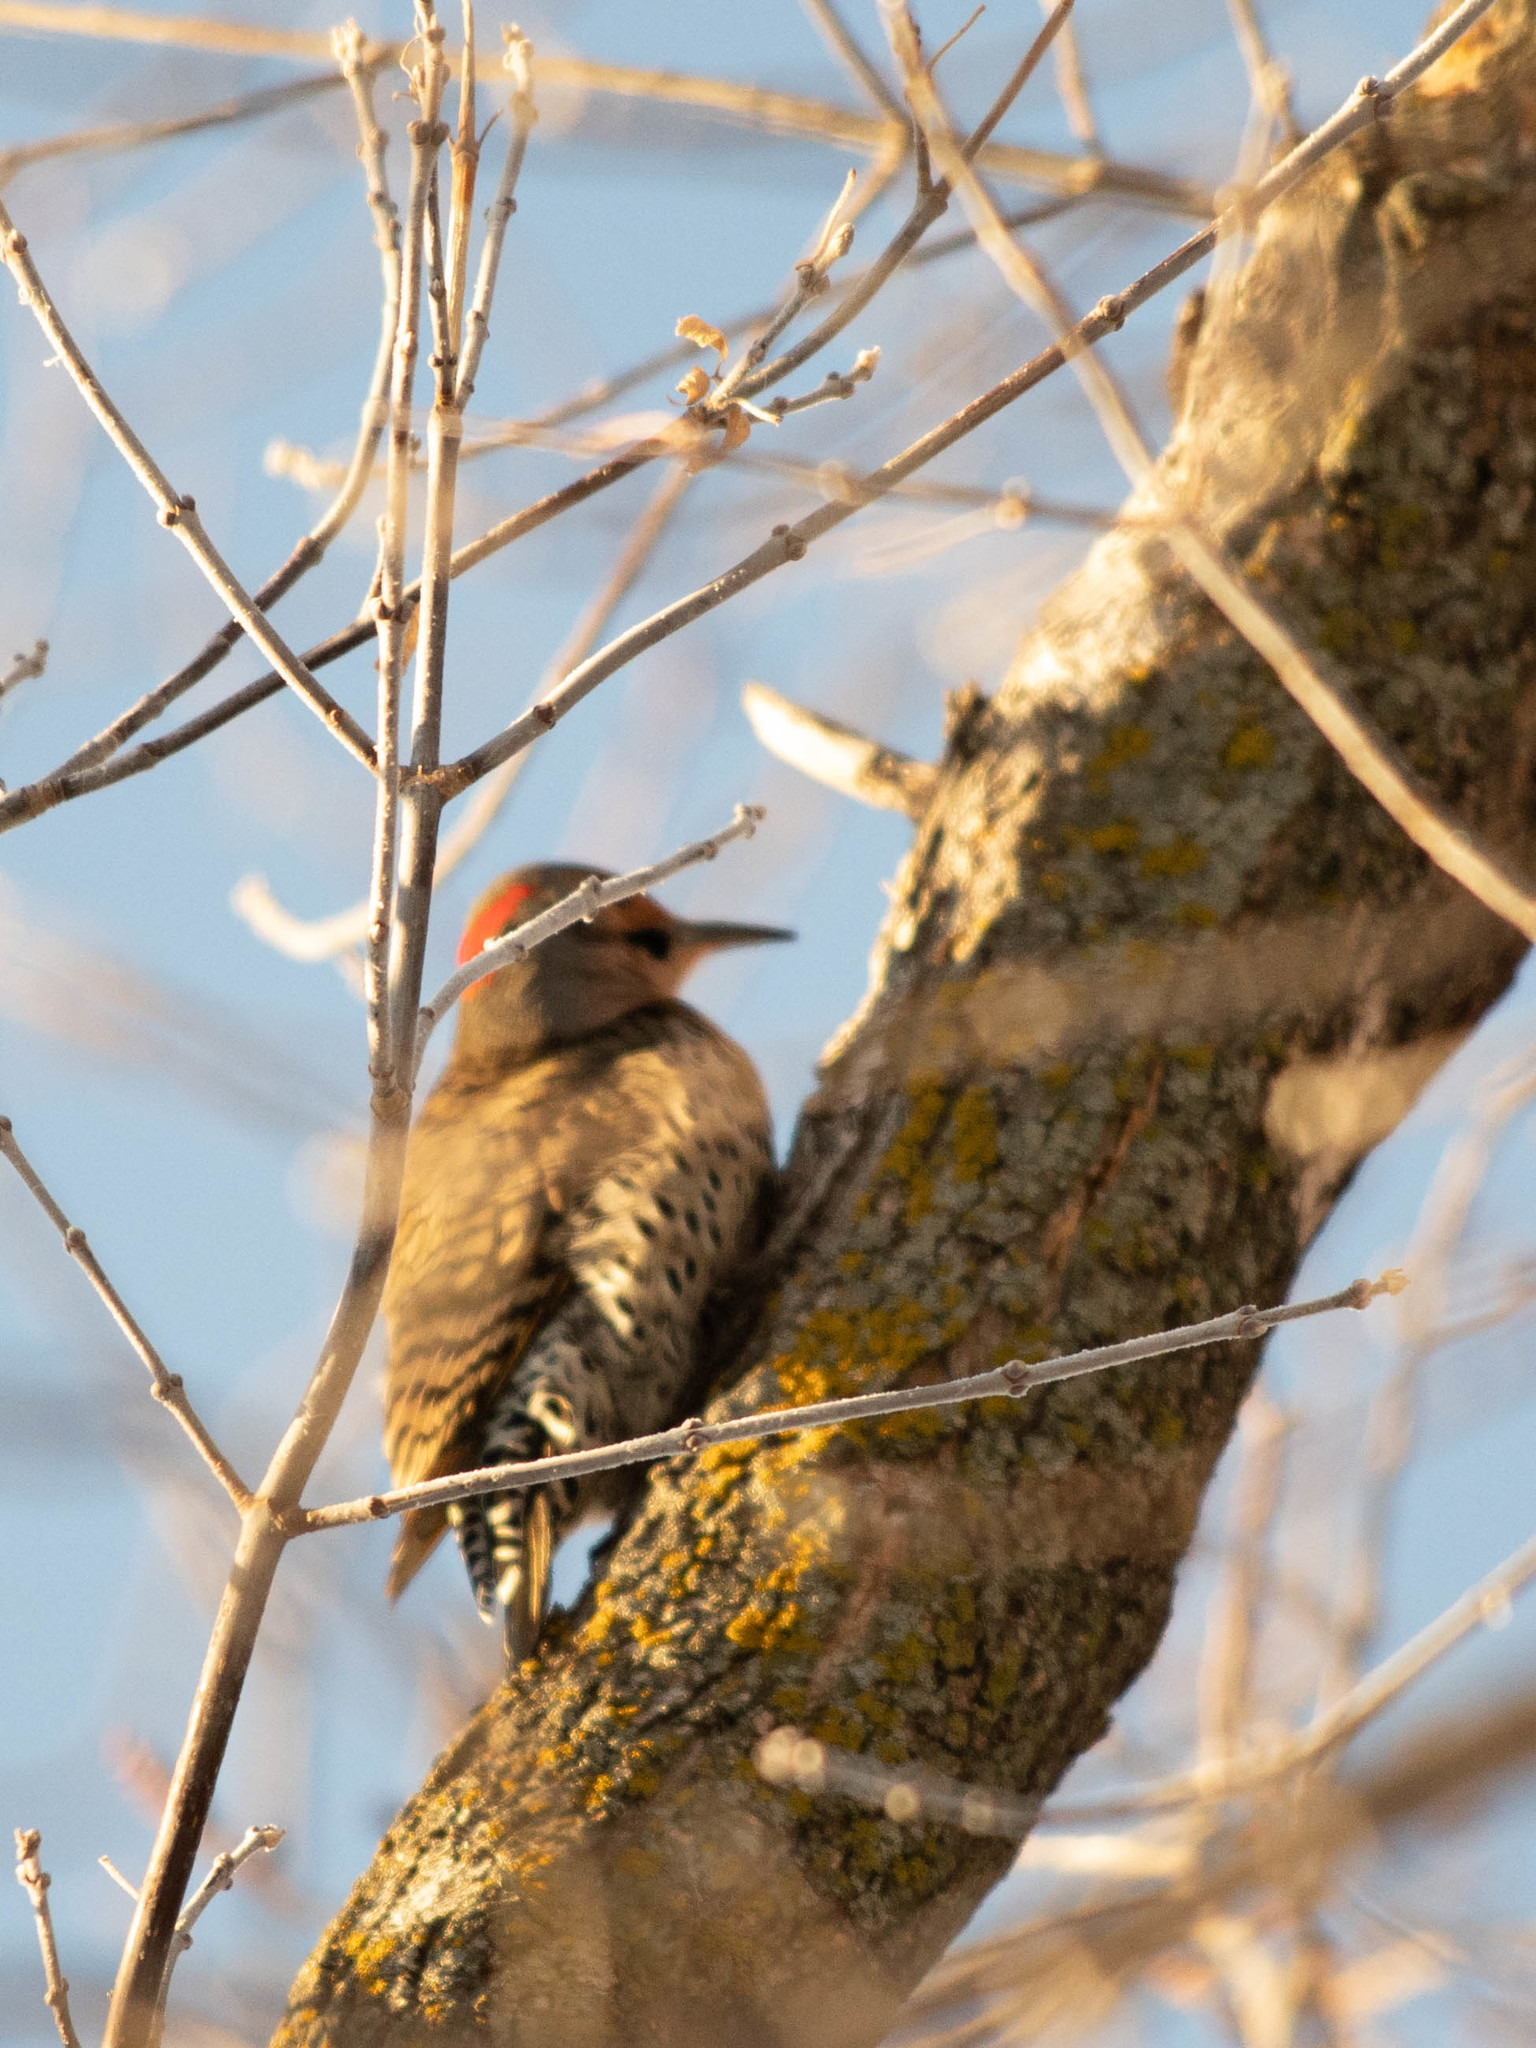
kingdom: Animalia
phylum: Chordata
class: Aves
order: Piciformes
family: Picidae
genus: Colaptes
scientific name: Colaptes auratus
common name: Northern flicker
